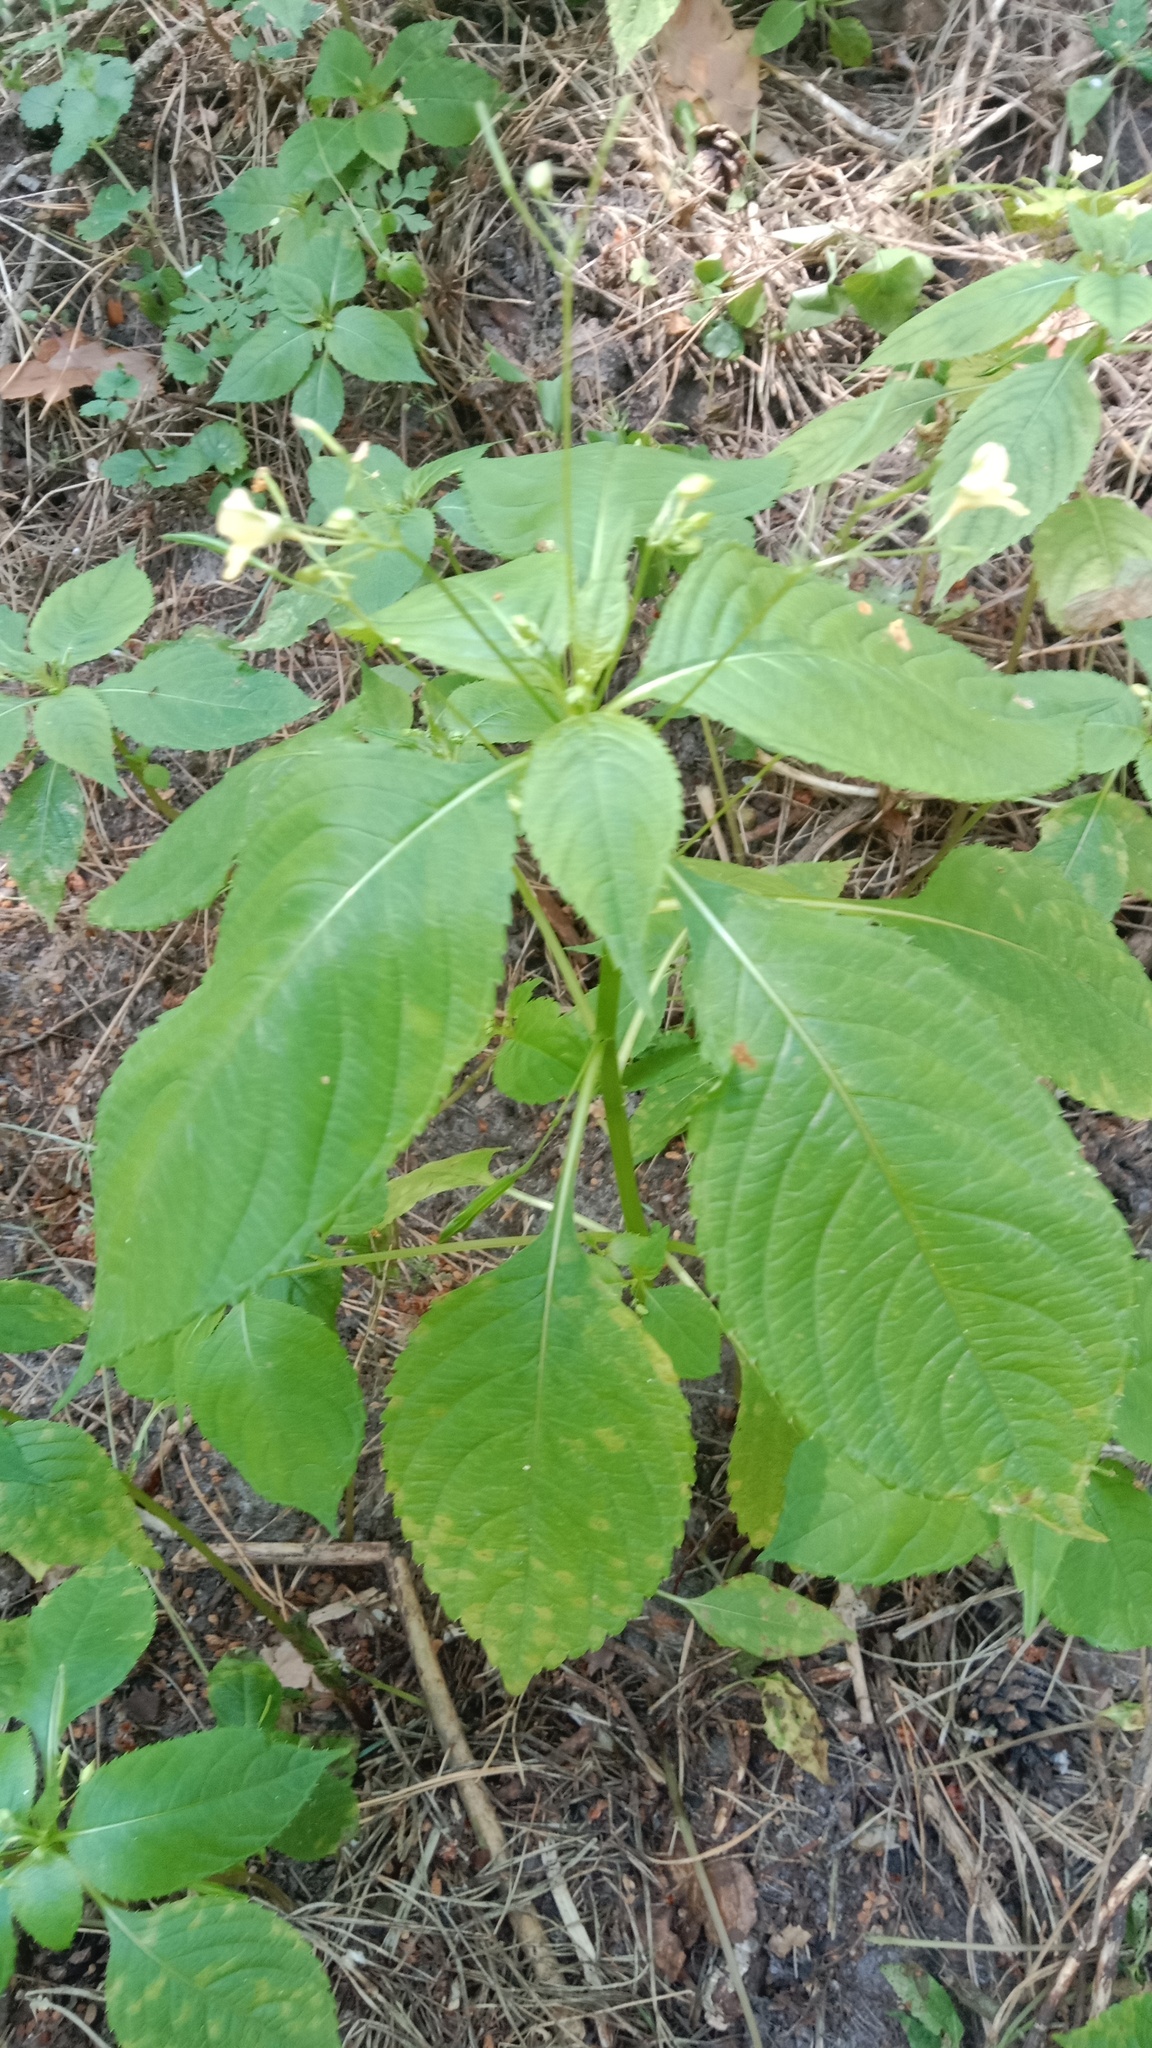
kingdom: Plantae
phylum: Tracheophyta
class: Magnoliopsida
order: Ericales
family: Balsaminaceae
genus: Impatiens
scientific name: Impatiens parviflora
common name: Small balsam
